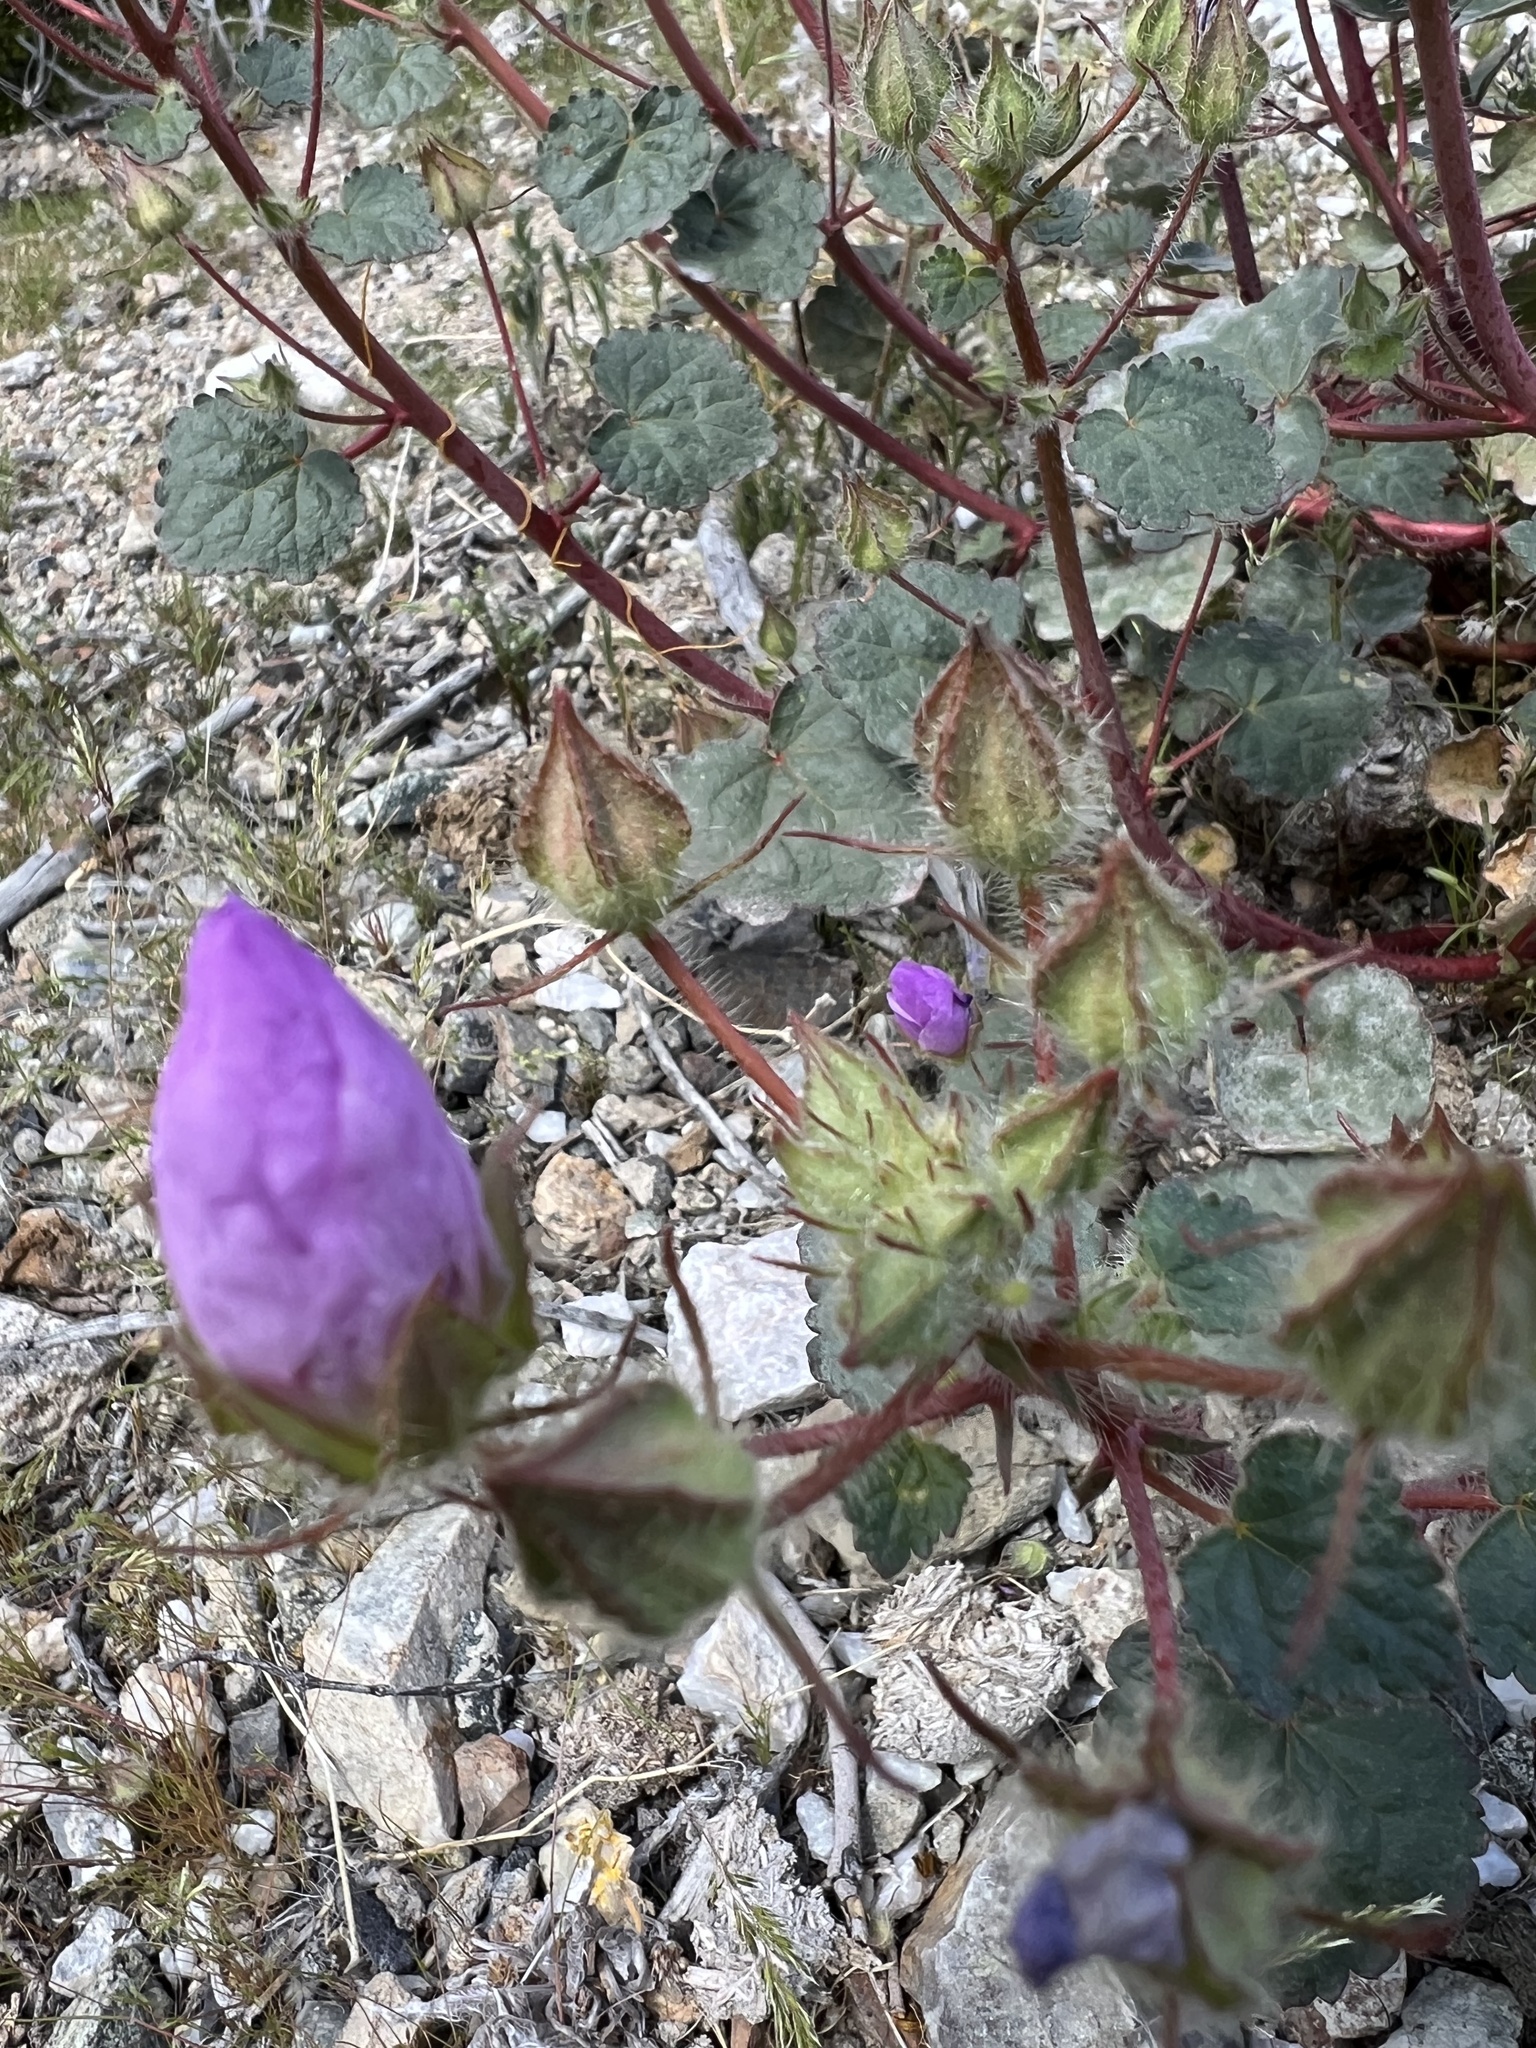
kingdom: Plantae
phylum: Tracheophyta
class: Magnoliopsida
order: Malvales
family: Malvaceae
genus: Eremalche
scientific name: Eremalche rotundifolia
